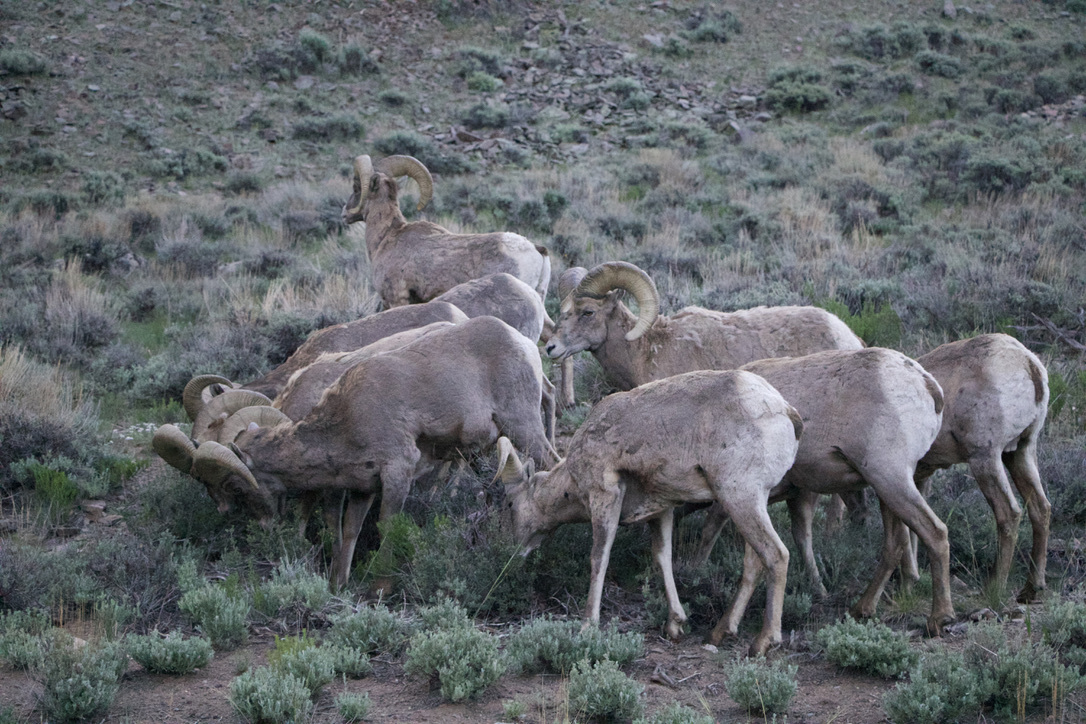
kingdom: Animalia
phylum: Chordata
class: Mammalia
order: Artiodactyla
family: Bovidae
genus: Ovis
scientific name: Ovis canadensis
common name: Bighorn sheep
